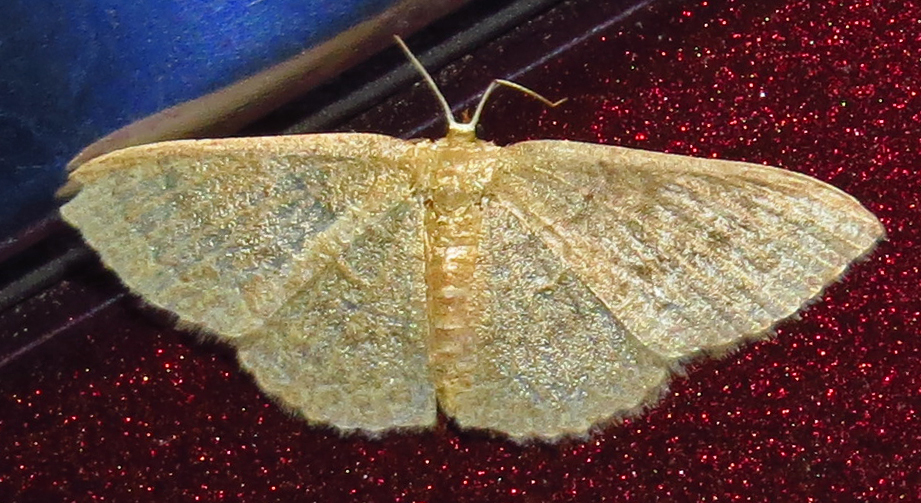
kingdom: Animalia
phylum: Arthropoda
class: Insecta
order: Lepidoptera
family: Geometridae
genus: Pleuroprucha
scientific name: Pleuroprucha insulsaria
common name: Common tan wave
